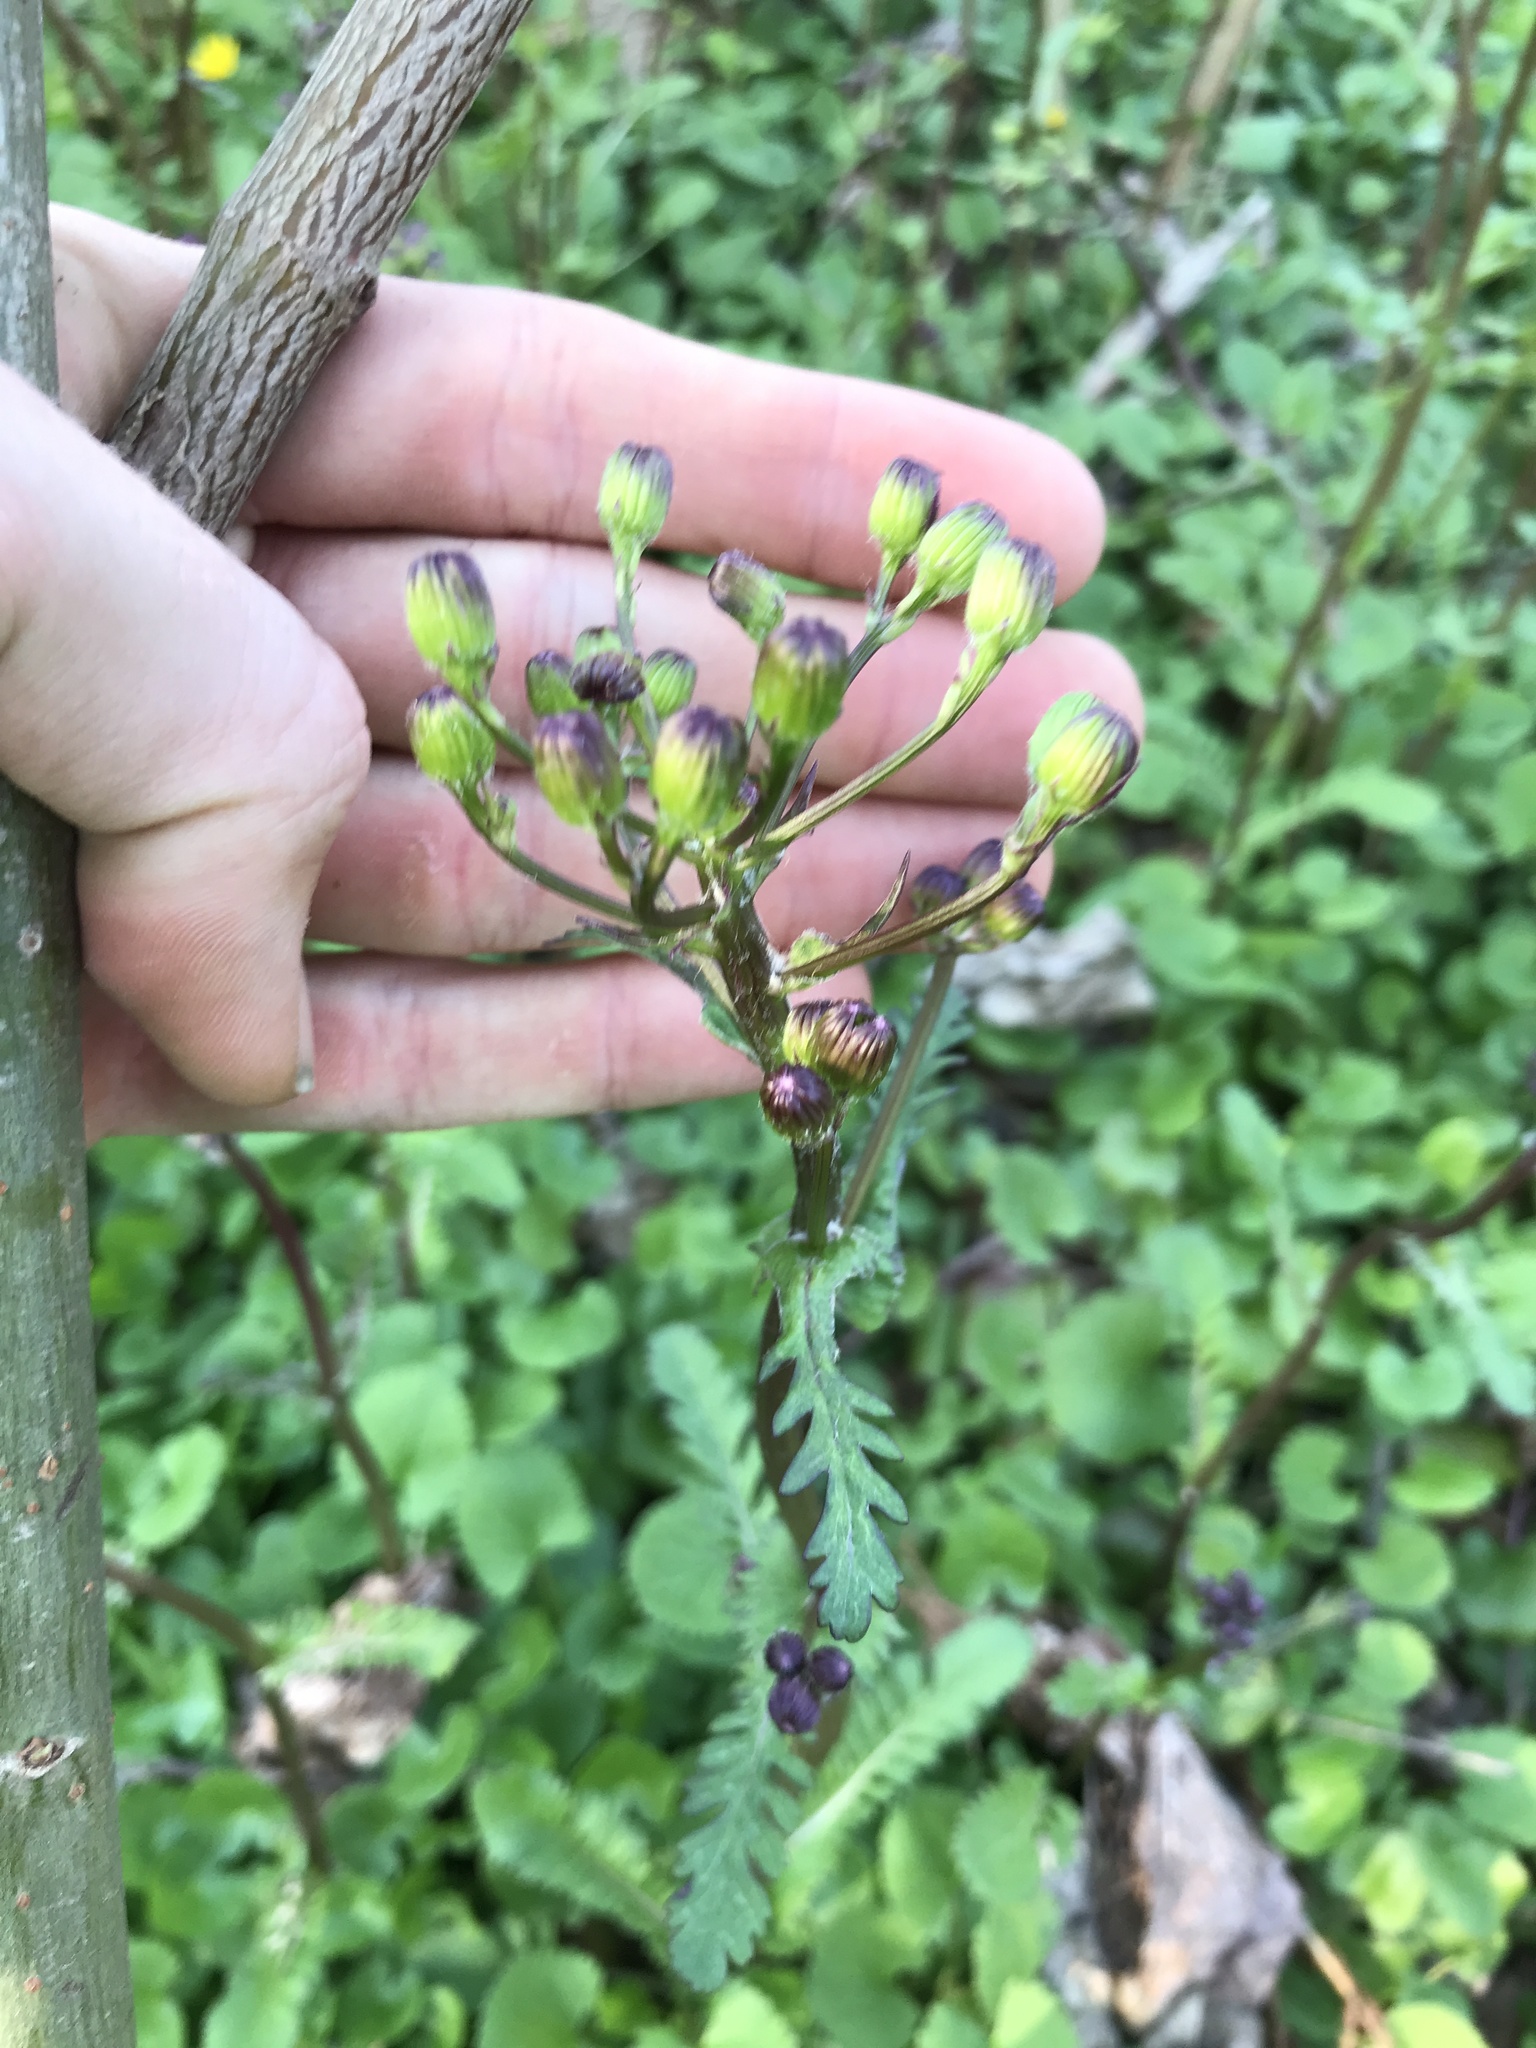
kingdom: Plantae
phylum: Tracheophyta
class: Magnoliopsida
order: Asterales
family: Asteraceae
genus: Packera
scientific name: Packera aurea
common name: Golden groundsel
